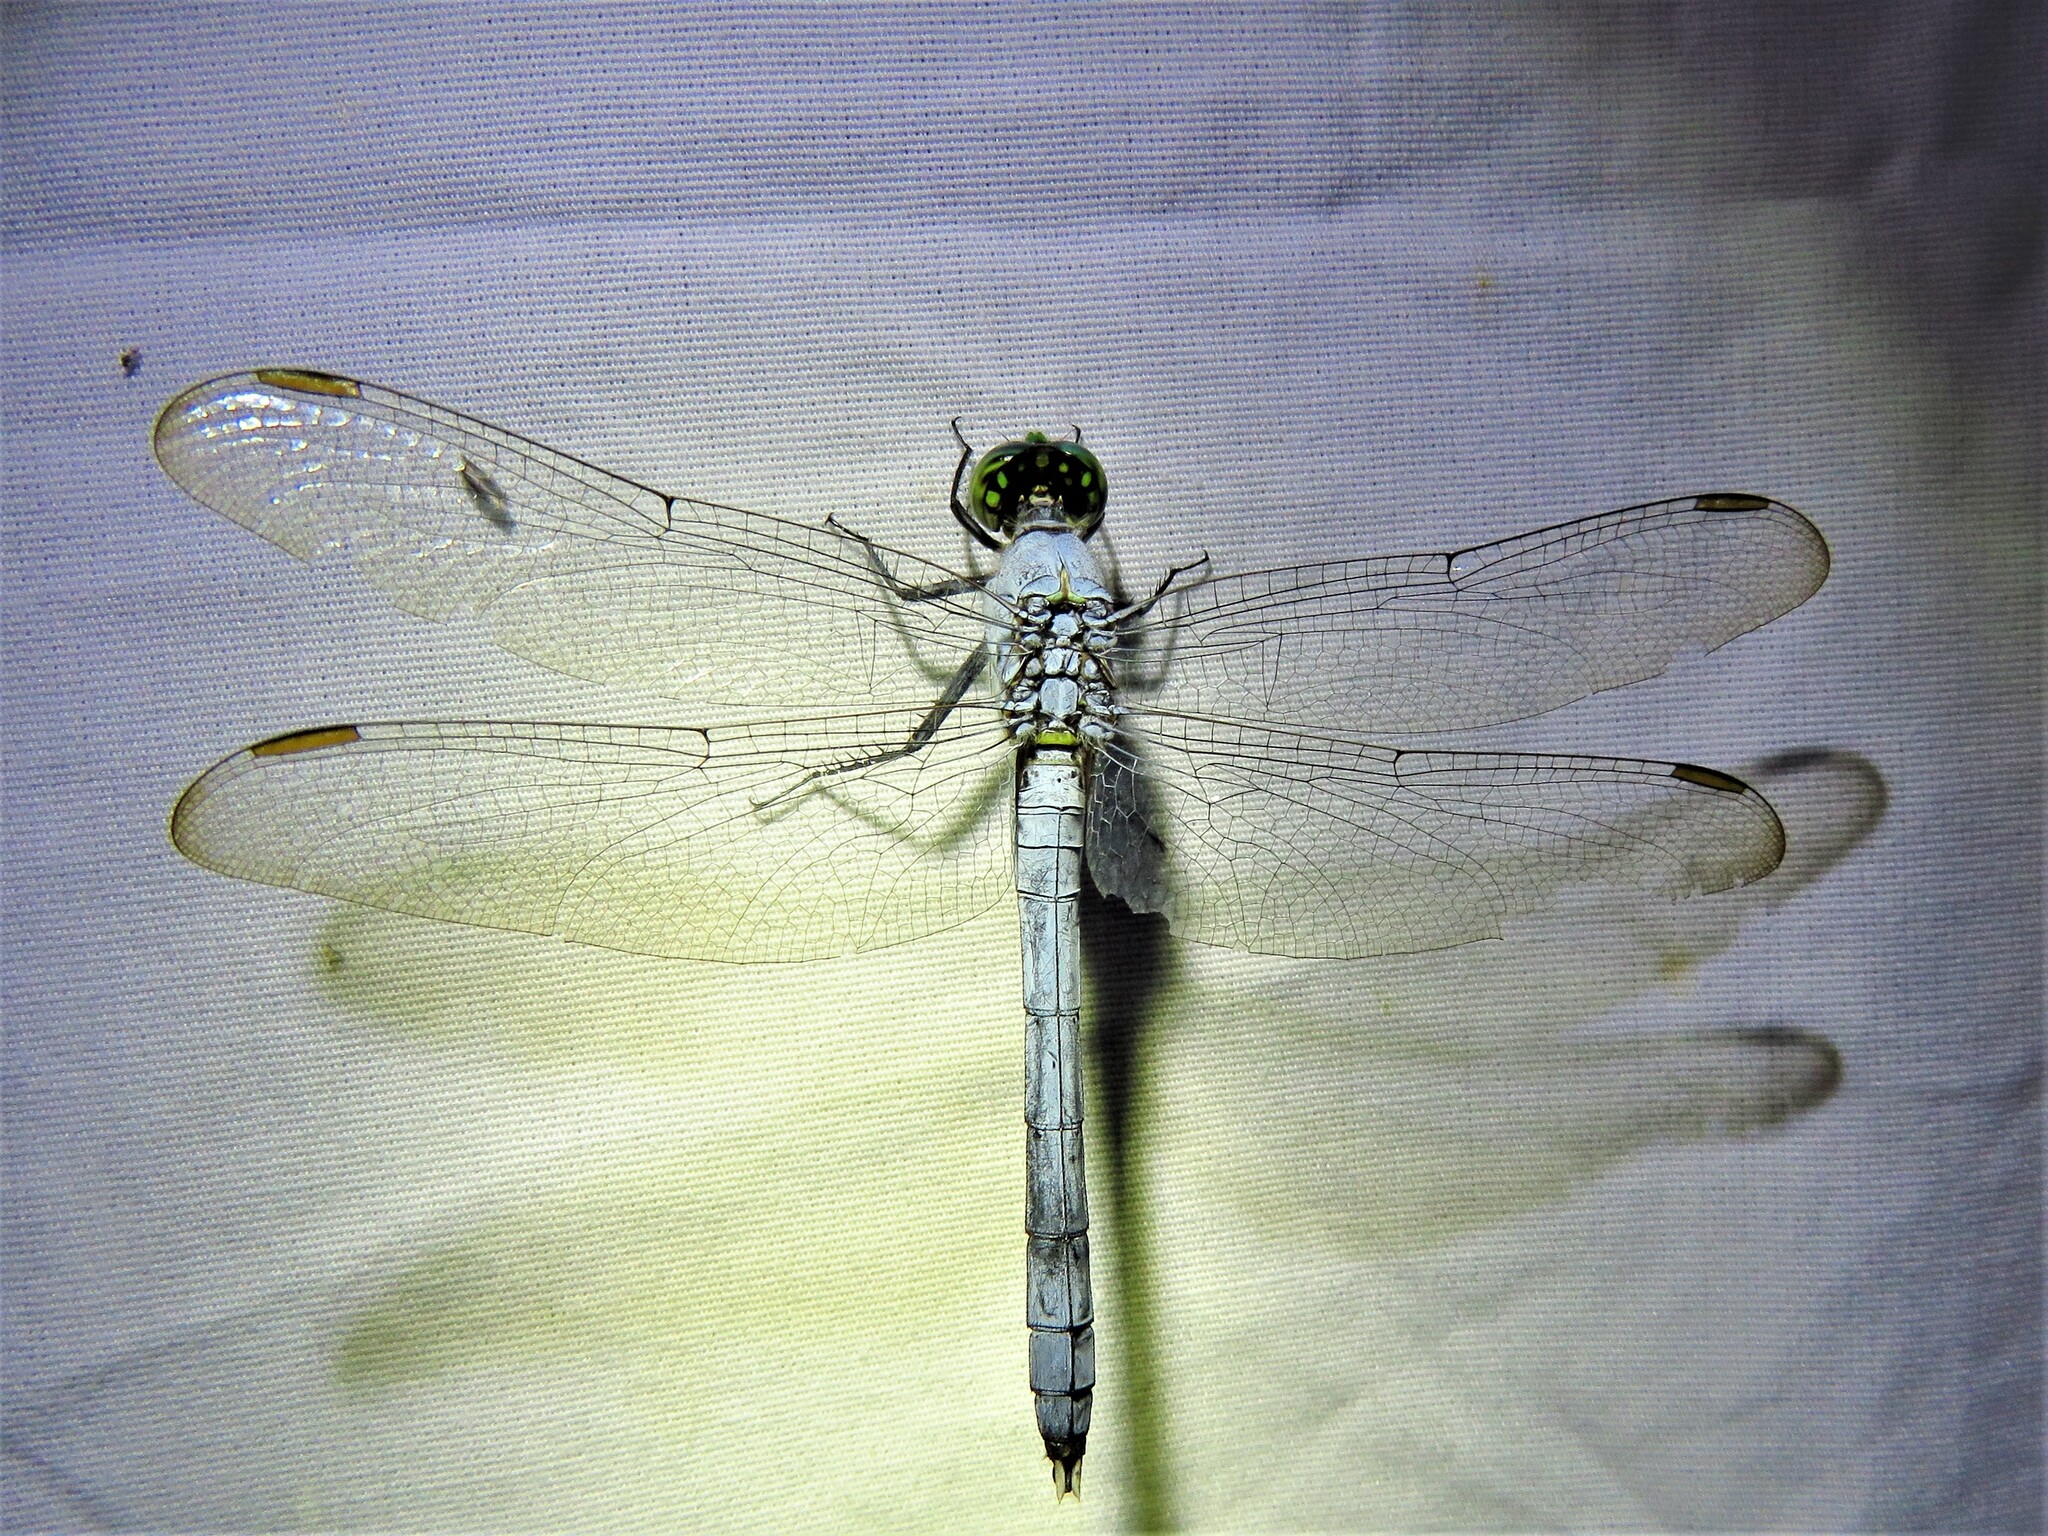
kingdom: Animalia
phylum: Arthropoda
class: Insecta
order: Odonata
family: Libellulidae
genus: Erythemis
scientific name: Erythemis simplicicollis
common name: Eastern pondhawk
